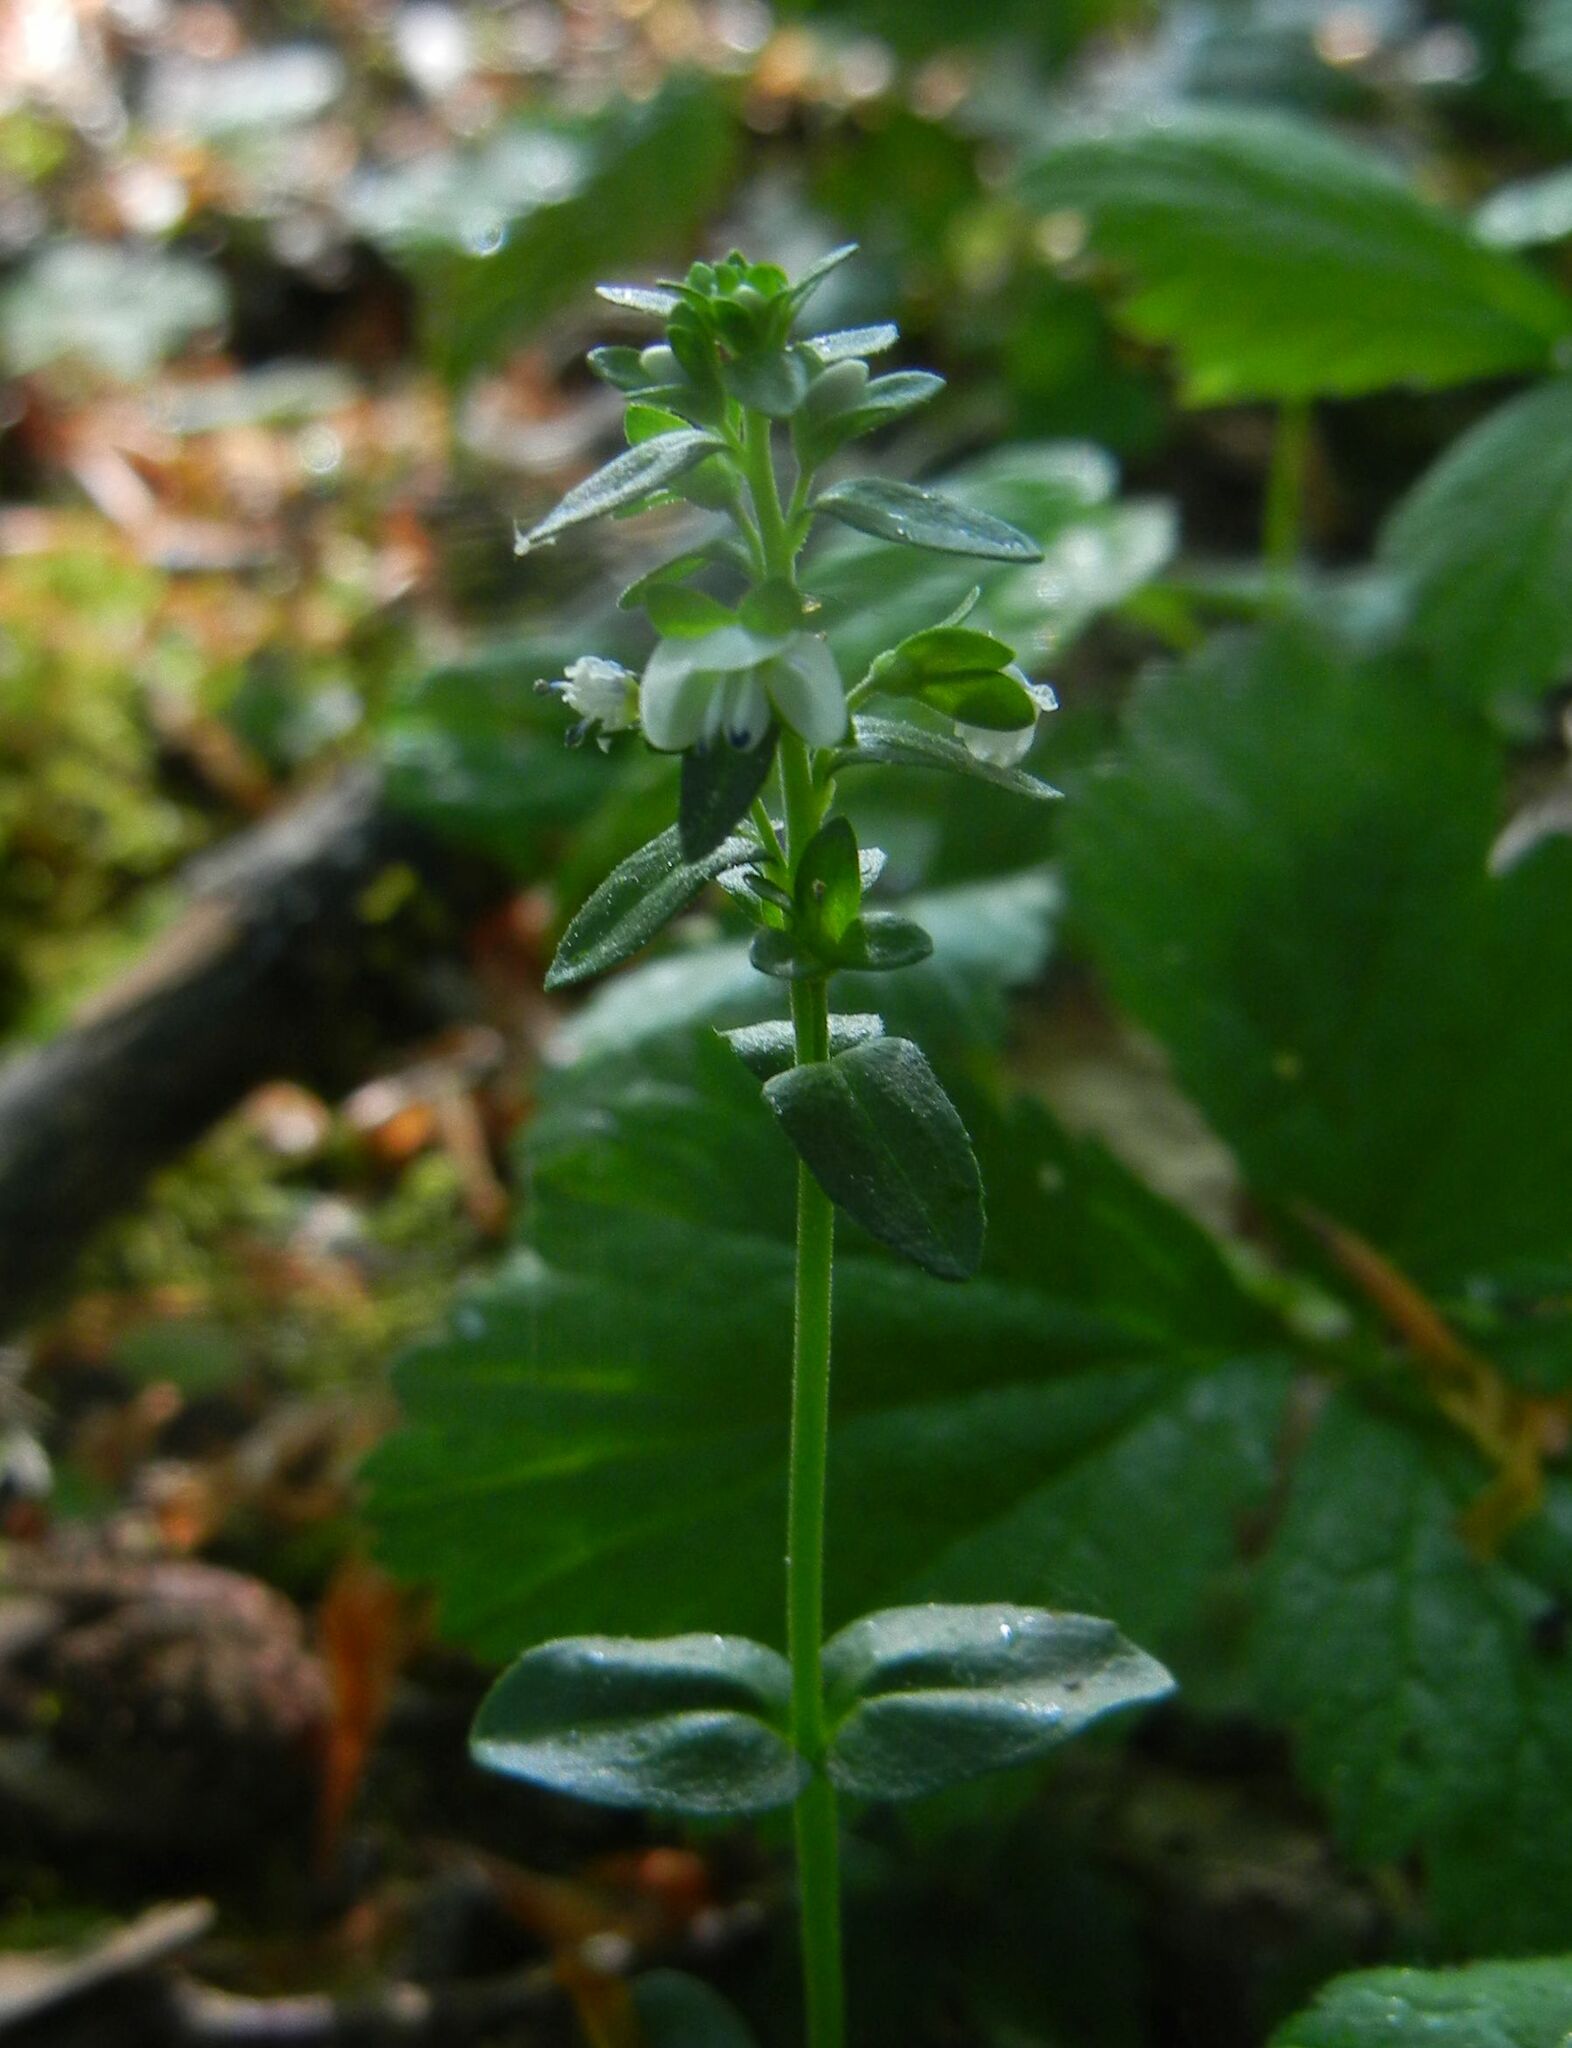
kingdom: Plantae
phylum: Tracheophyta
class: Magnoliopsida
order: Lamiales
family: Plantaginaceae
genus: Veronica
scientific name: Veronica serpyllifolia
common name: Thyme-leaved speedwell
